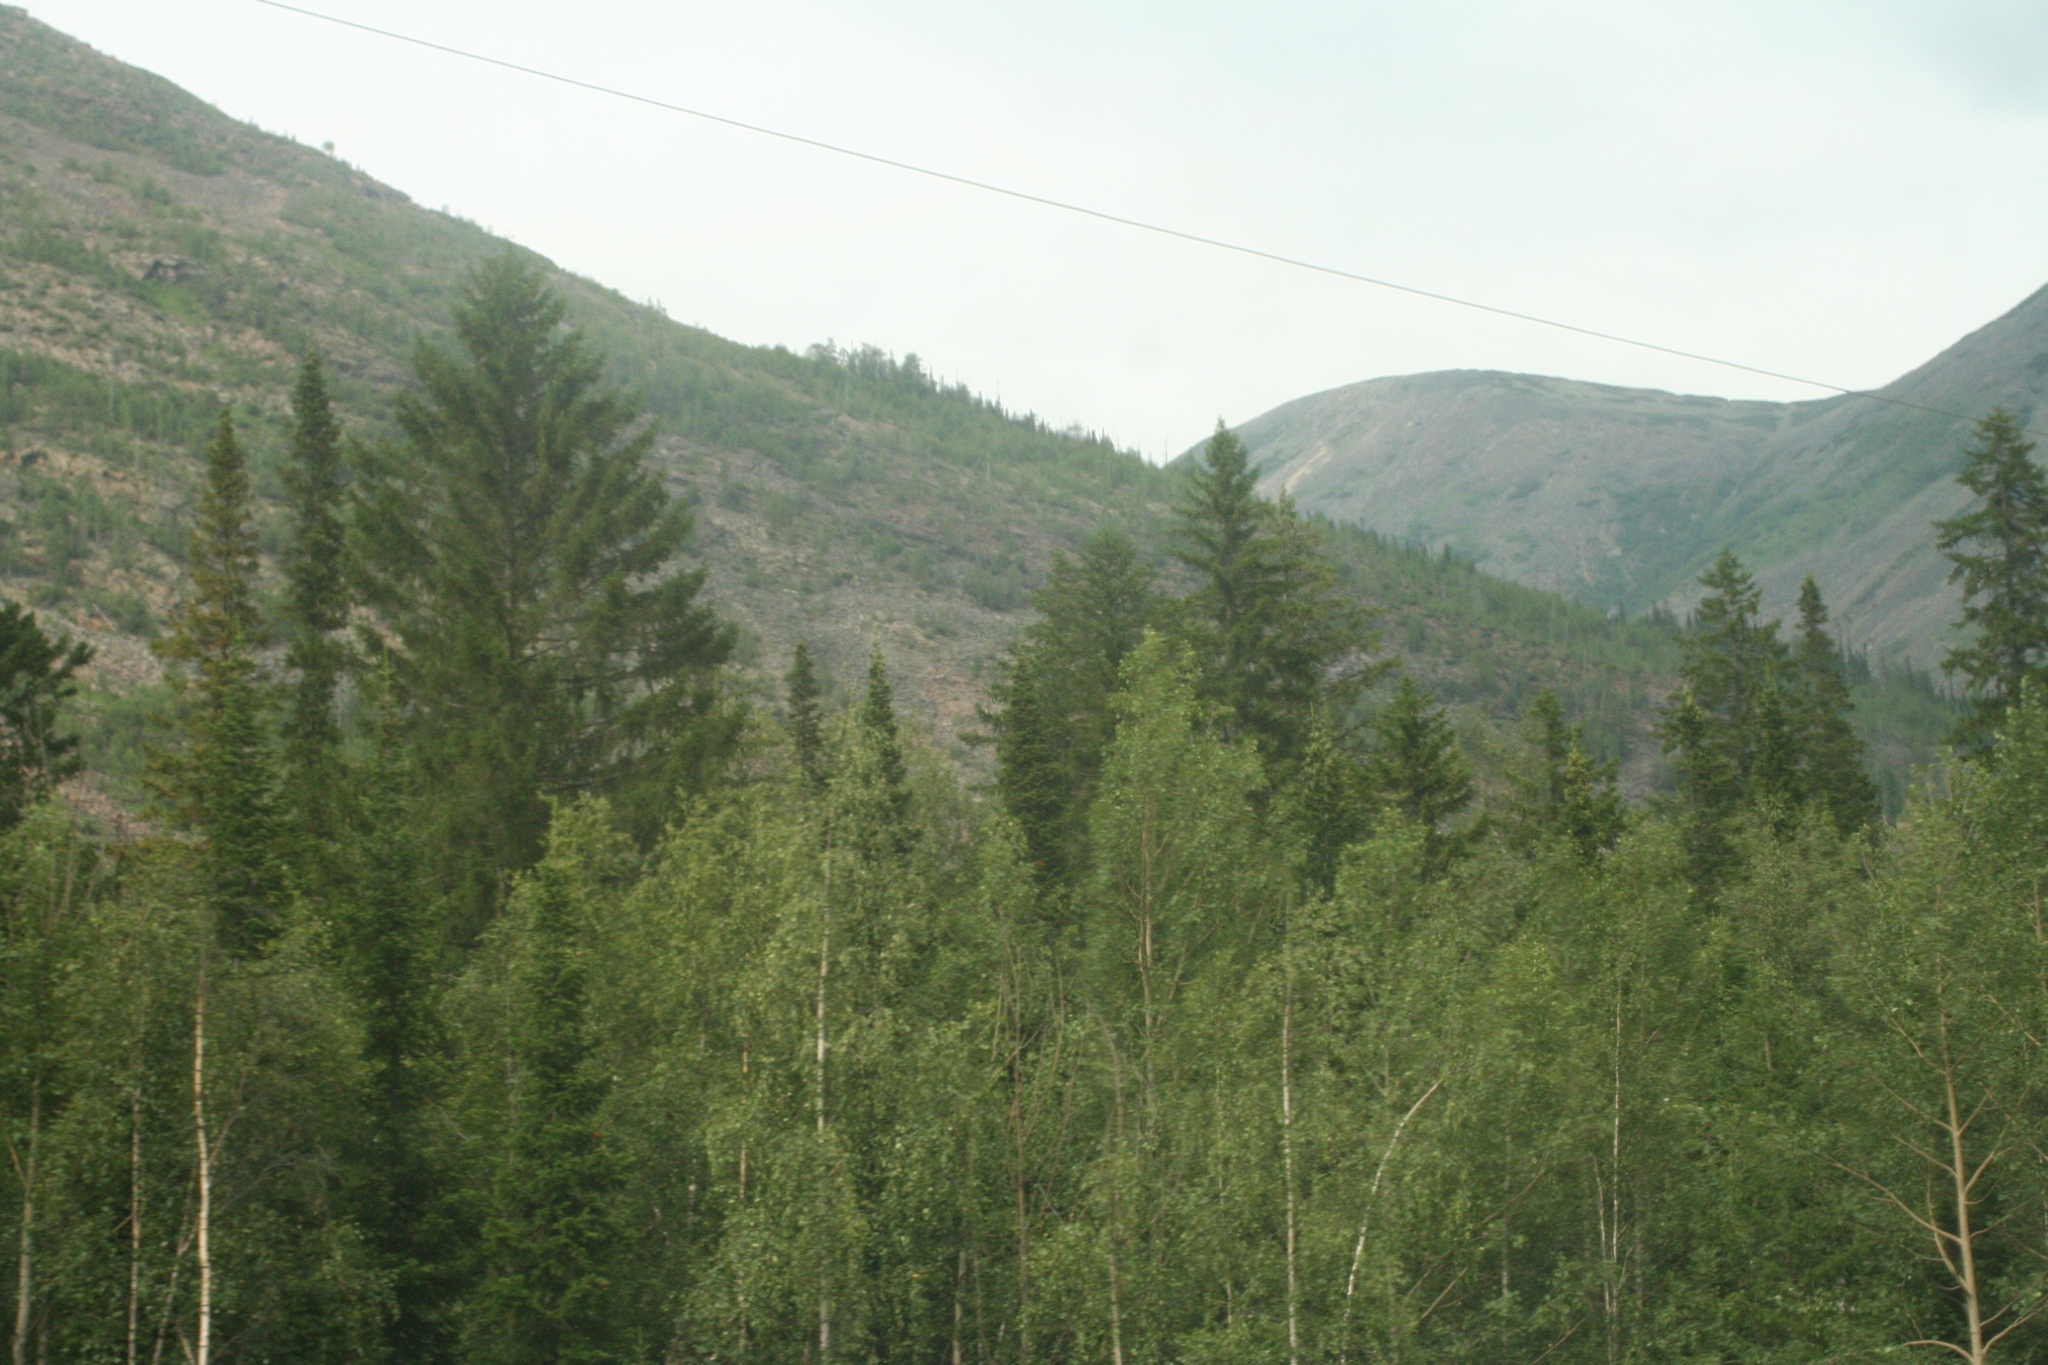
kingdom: Plantae
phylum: Tracheophyta
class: Pinopsida
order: Pinales
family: Pinaceae
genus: Abies
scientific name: Abies sibirica
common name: Siberian fir
